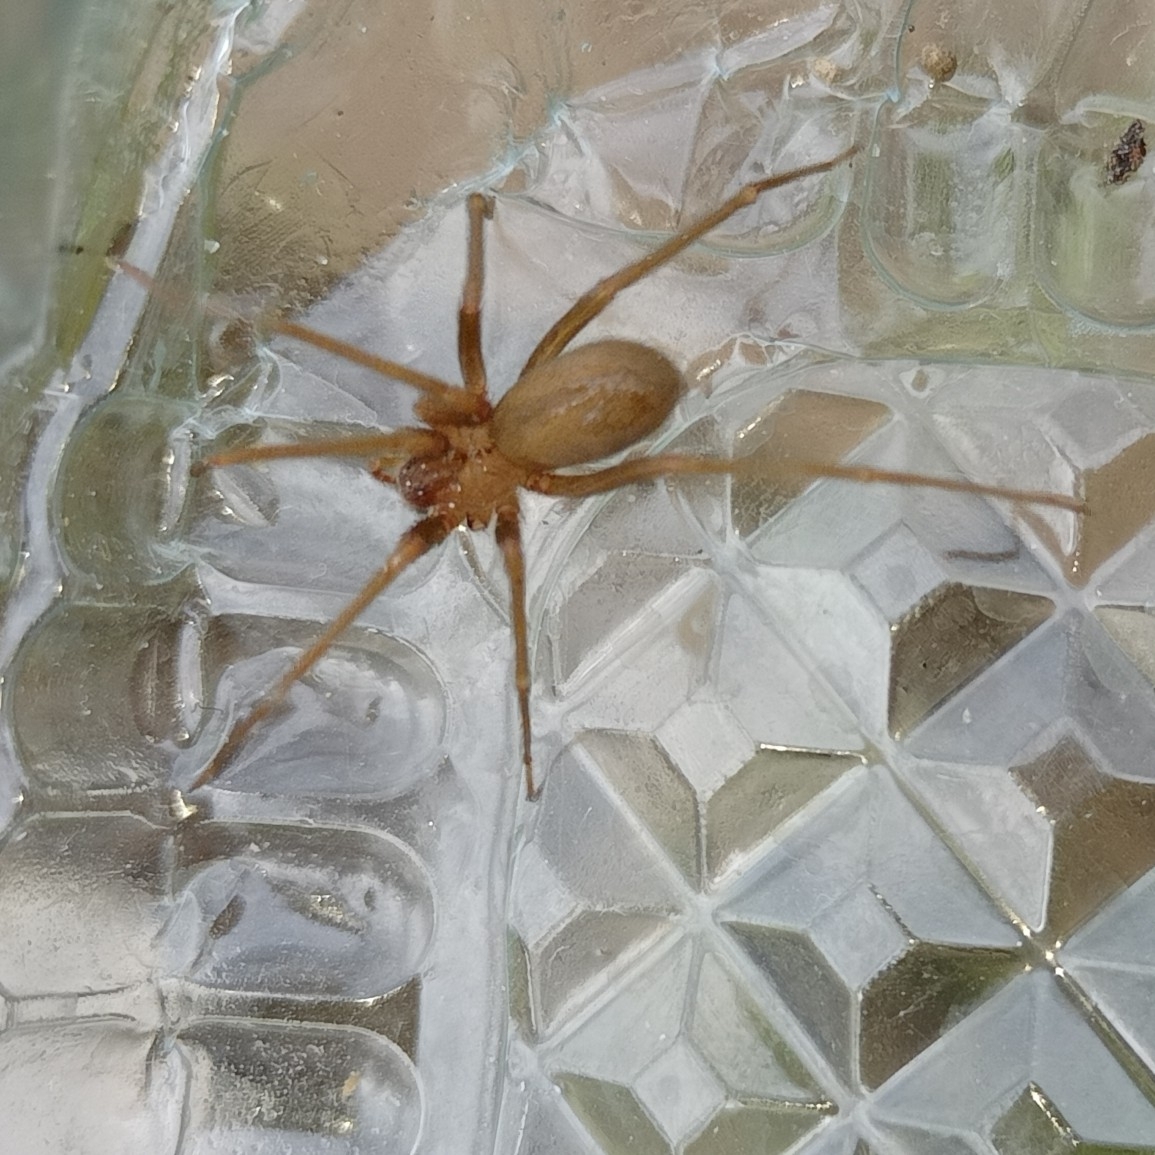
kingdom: Animalia
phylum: Arthropoda
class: Arachnida
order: Araneae
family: Sicariidae
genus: Loxosceles
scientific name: Loxosceles rufescens
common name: Mediterranean recluse spider
